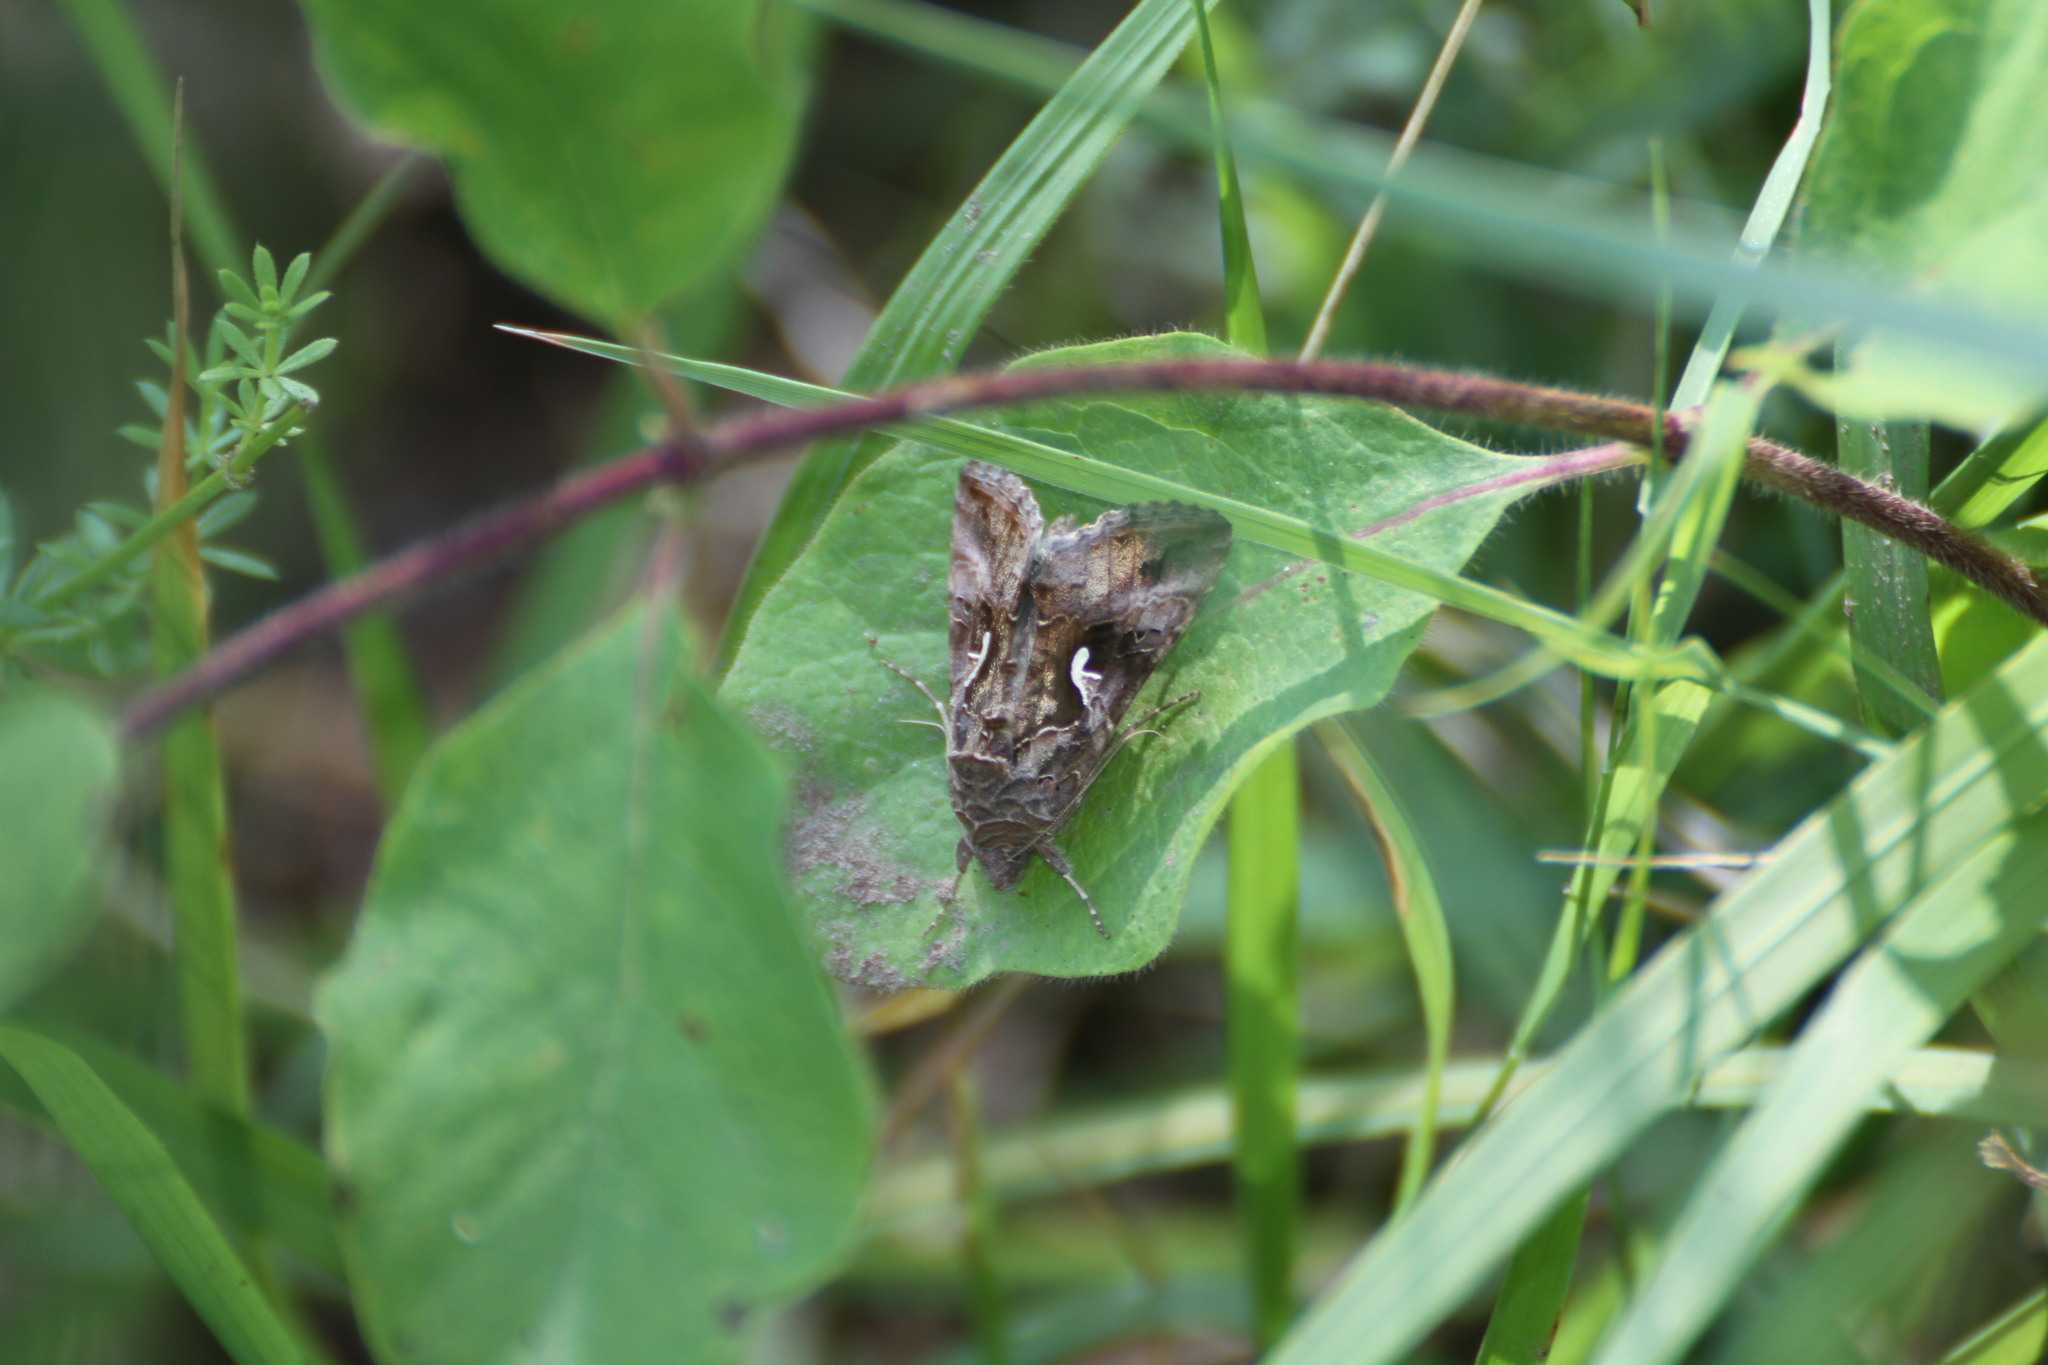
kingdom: Animalia
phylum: Arthropoda
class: Insecta
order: Lepidoptera
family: Noctuidae
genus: Autographa
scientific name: Autographa gamma
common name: Silver y
